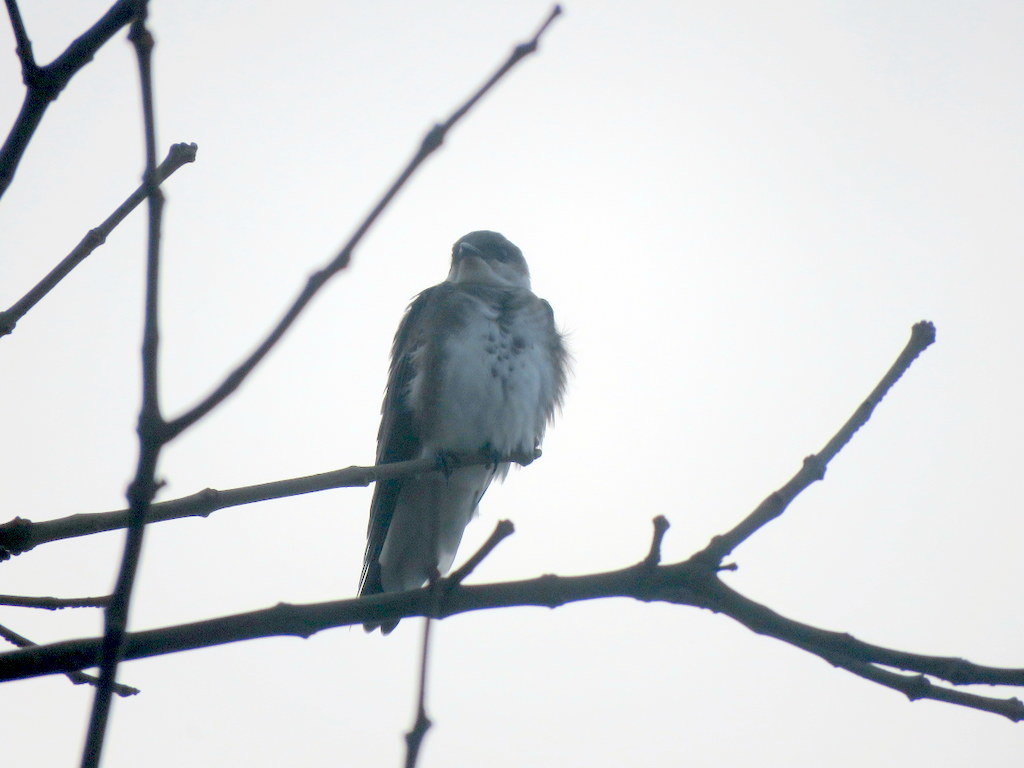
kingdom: Animalia
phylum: Chordata
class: Aves
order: Passeriformes
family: Hirundinidae
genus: Progne
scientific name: Progne tapera
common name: Brown-chested martin
